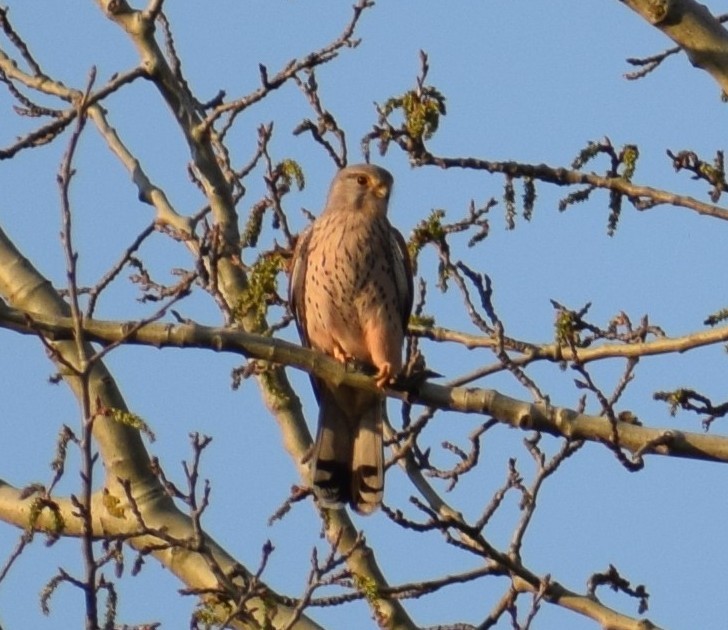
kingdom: Animalia
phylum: Chordata
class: Aves
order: Falconiformes
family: Falconidae
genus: Falco
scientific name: Falco tinnunculus
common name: Common kestrel
